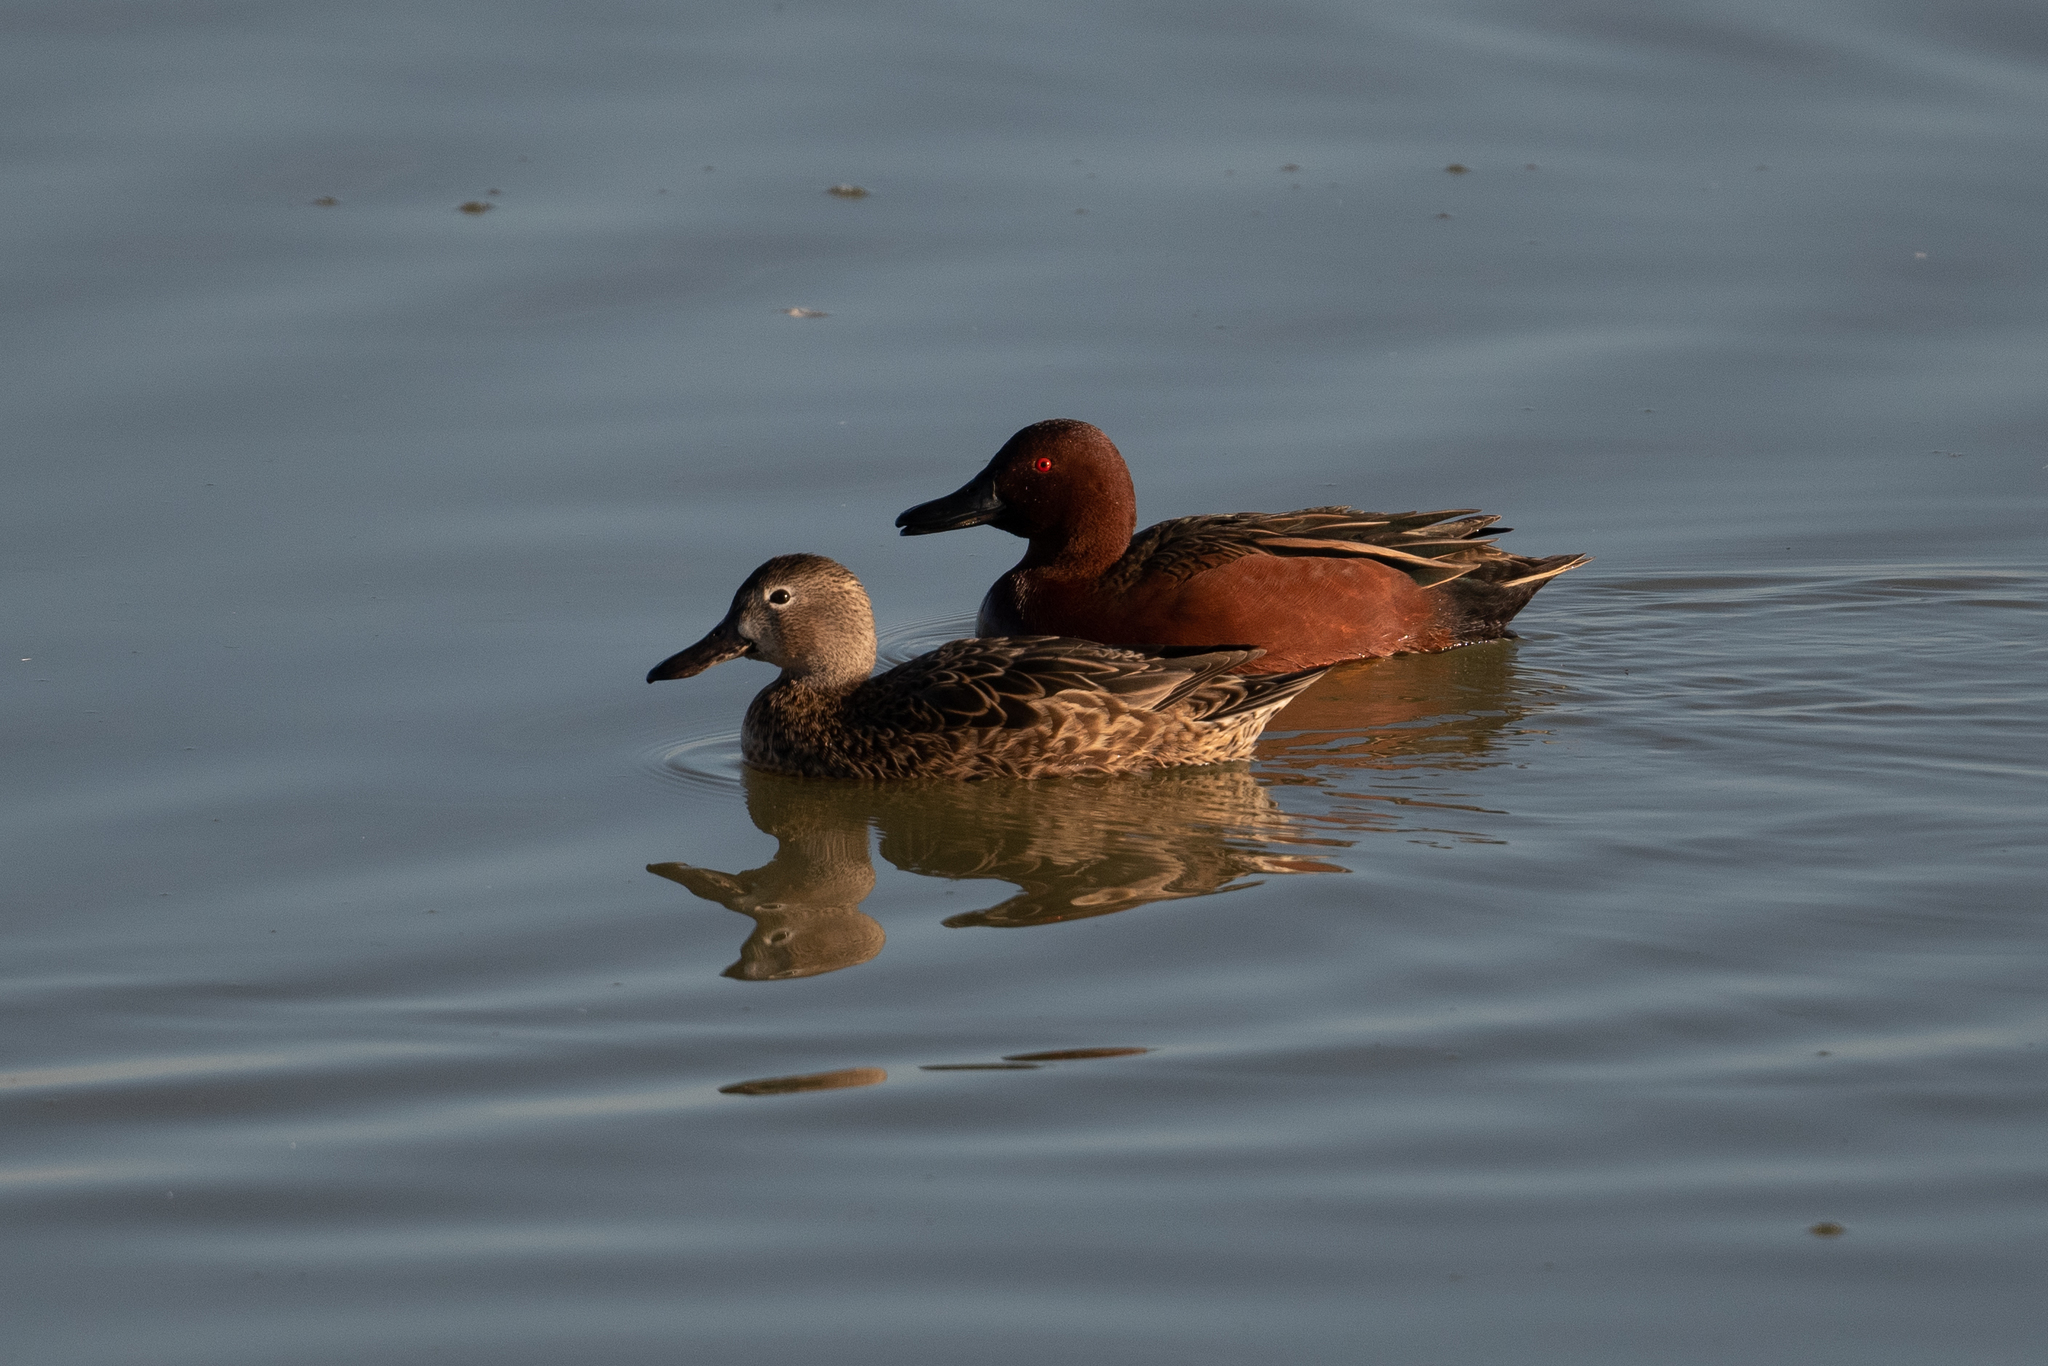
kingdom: Animalia
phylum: Chordata
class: Aves
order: Anseriformes
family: Anatidae
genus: Spatula
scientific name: Spatula cyanoptera
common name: Cinnamon teal
